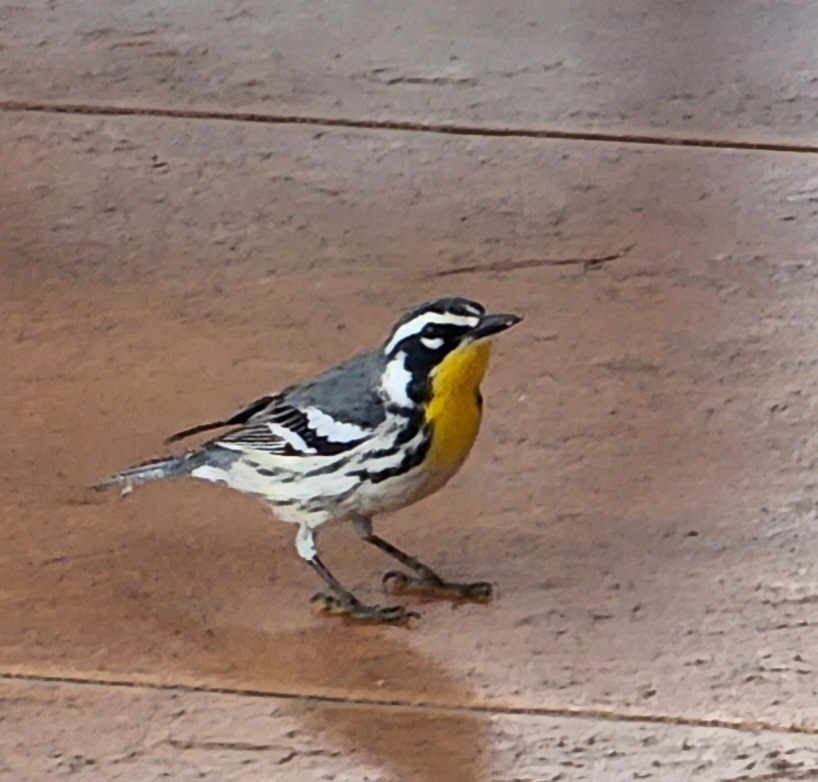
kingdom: Animalia
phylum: Chordata
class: Aves
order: Passeriformes
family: Parulidae
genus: Setophaga
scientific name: Setophaga dominica
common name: Yellow-throated warbler
